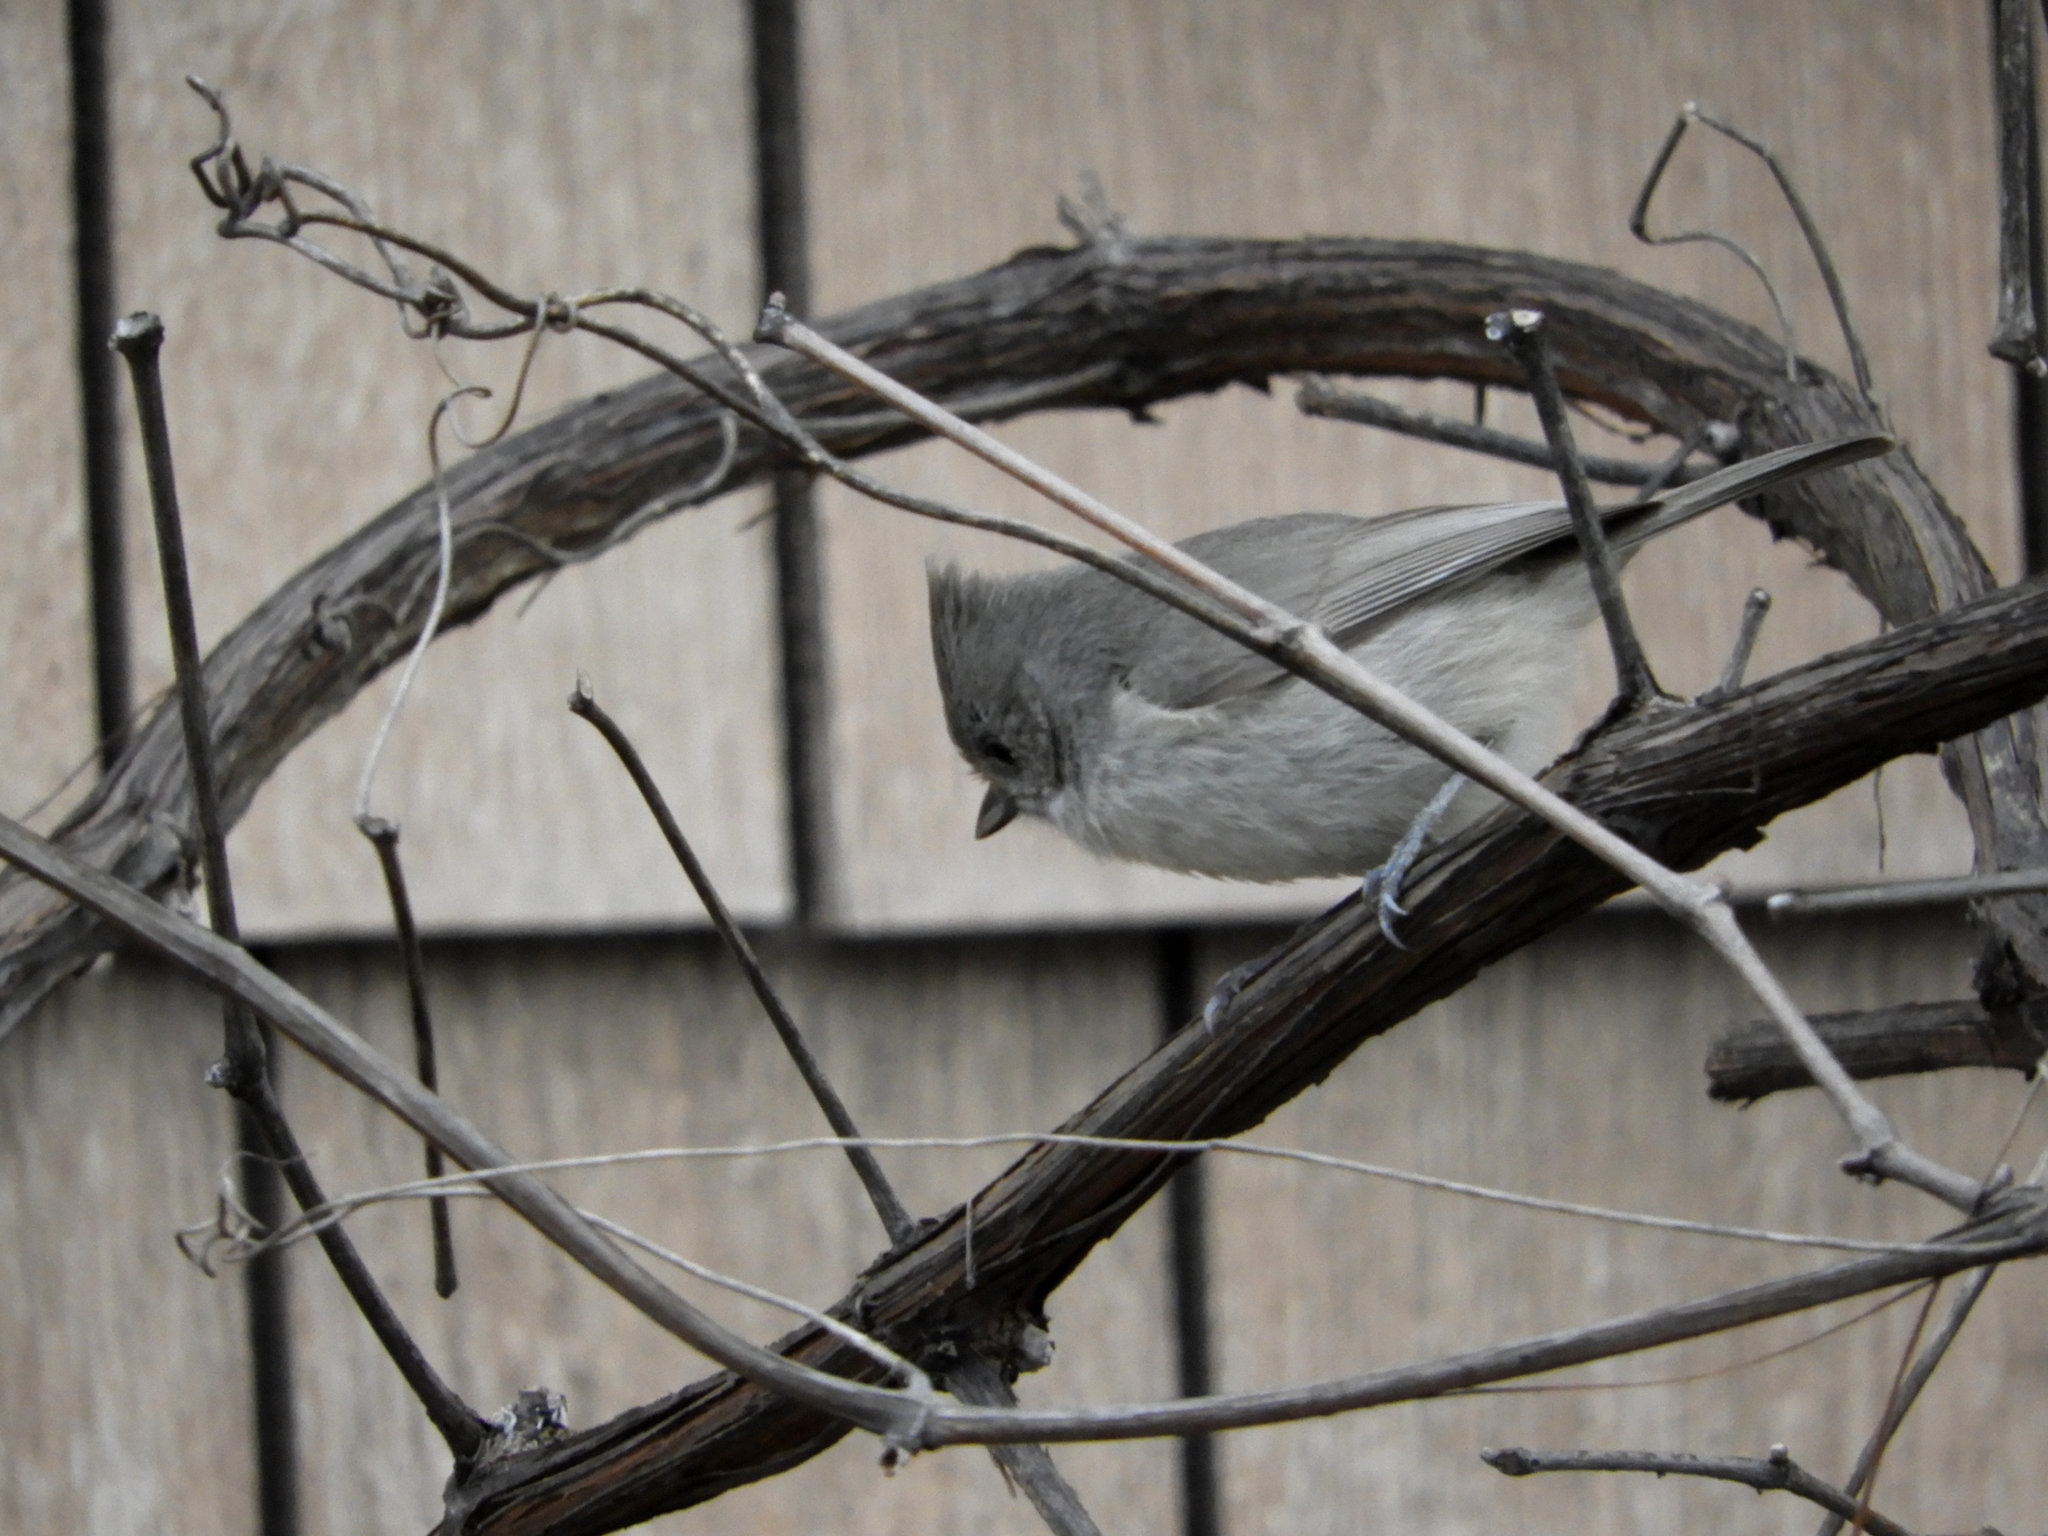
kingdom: Animalia
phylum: Chordata
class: Aves
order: Passeriformes
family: Paridae
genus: Baeolophus
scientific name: Baeolophus inornatus
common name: Oak titmouse
